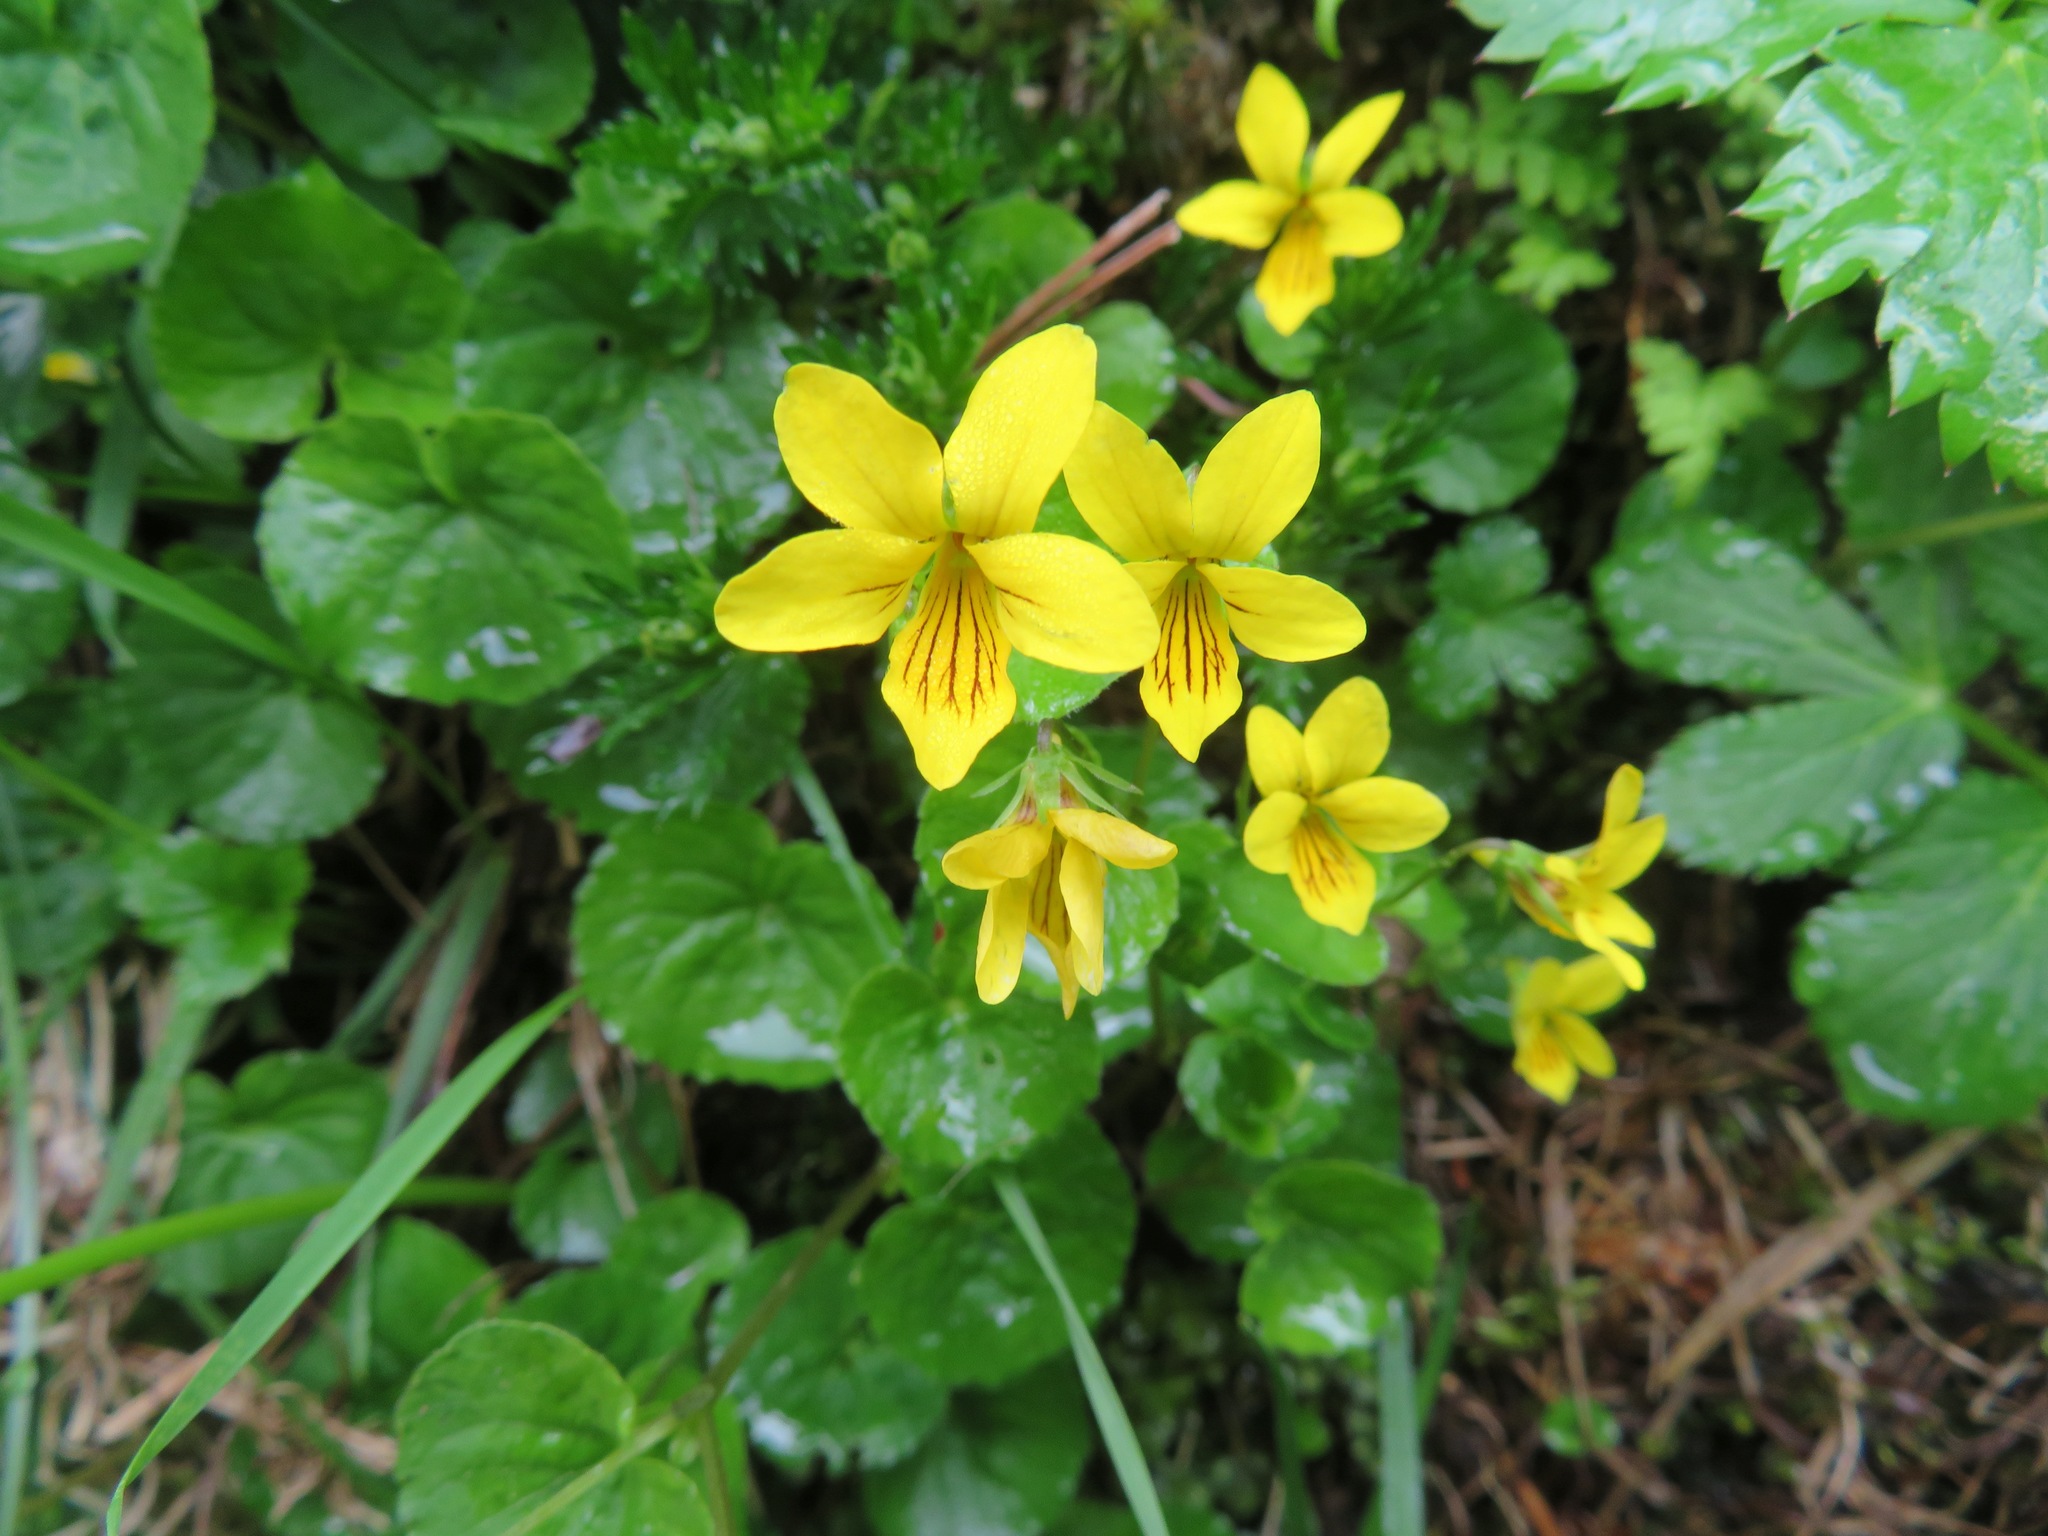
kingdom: Plantae
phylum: Tracheophyta
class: Magnoliopsida
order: Malpighiales
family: Violaceae
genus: Viola
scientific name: Viola biflora
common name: Alpine yellow violet
